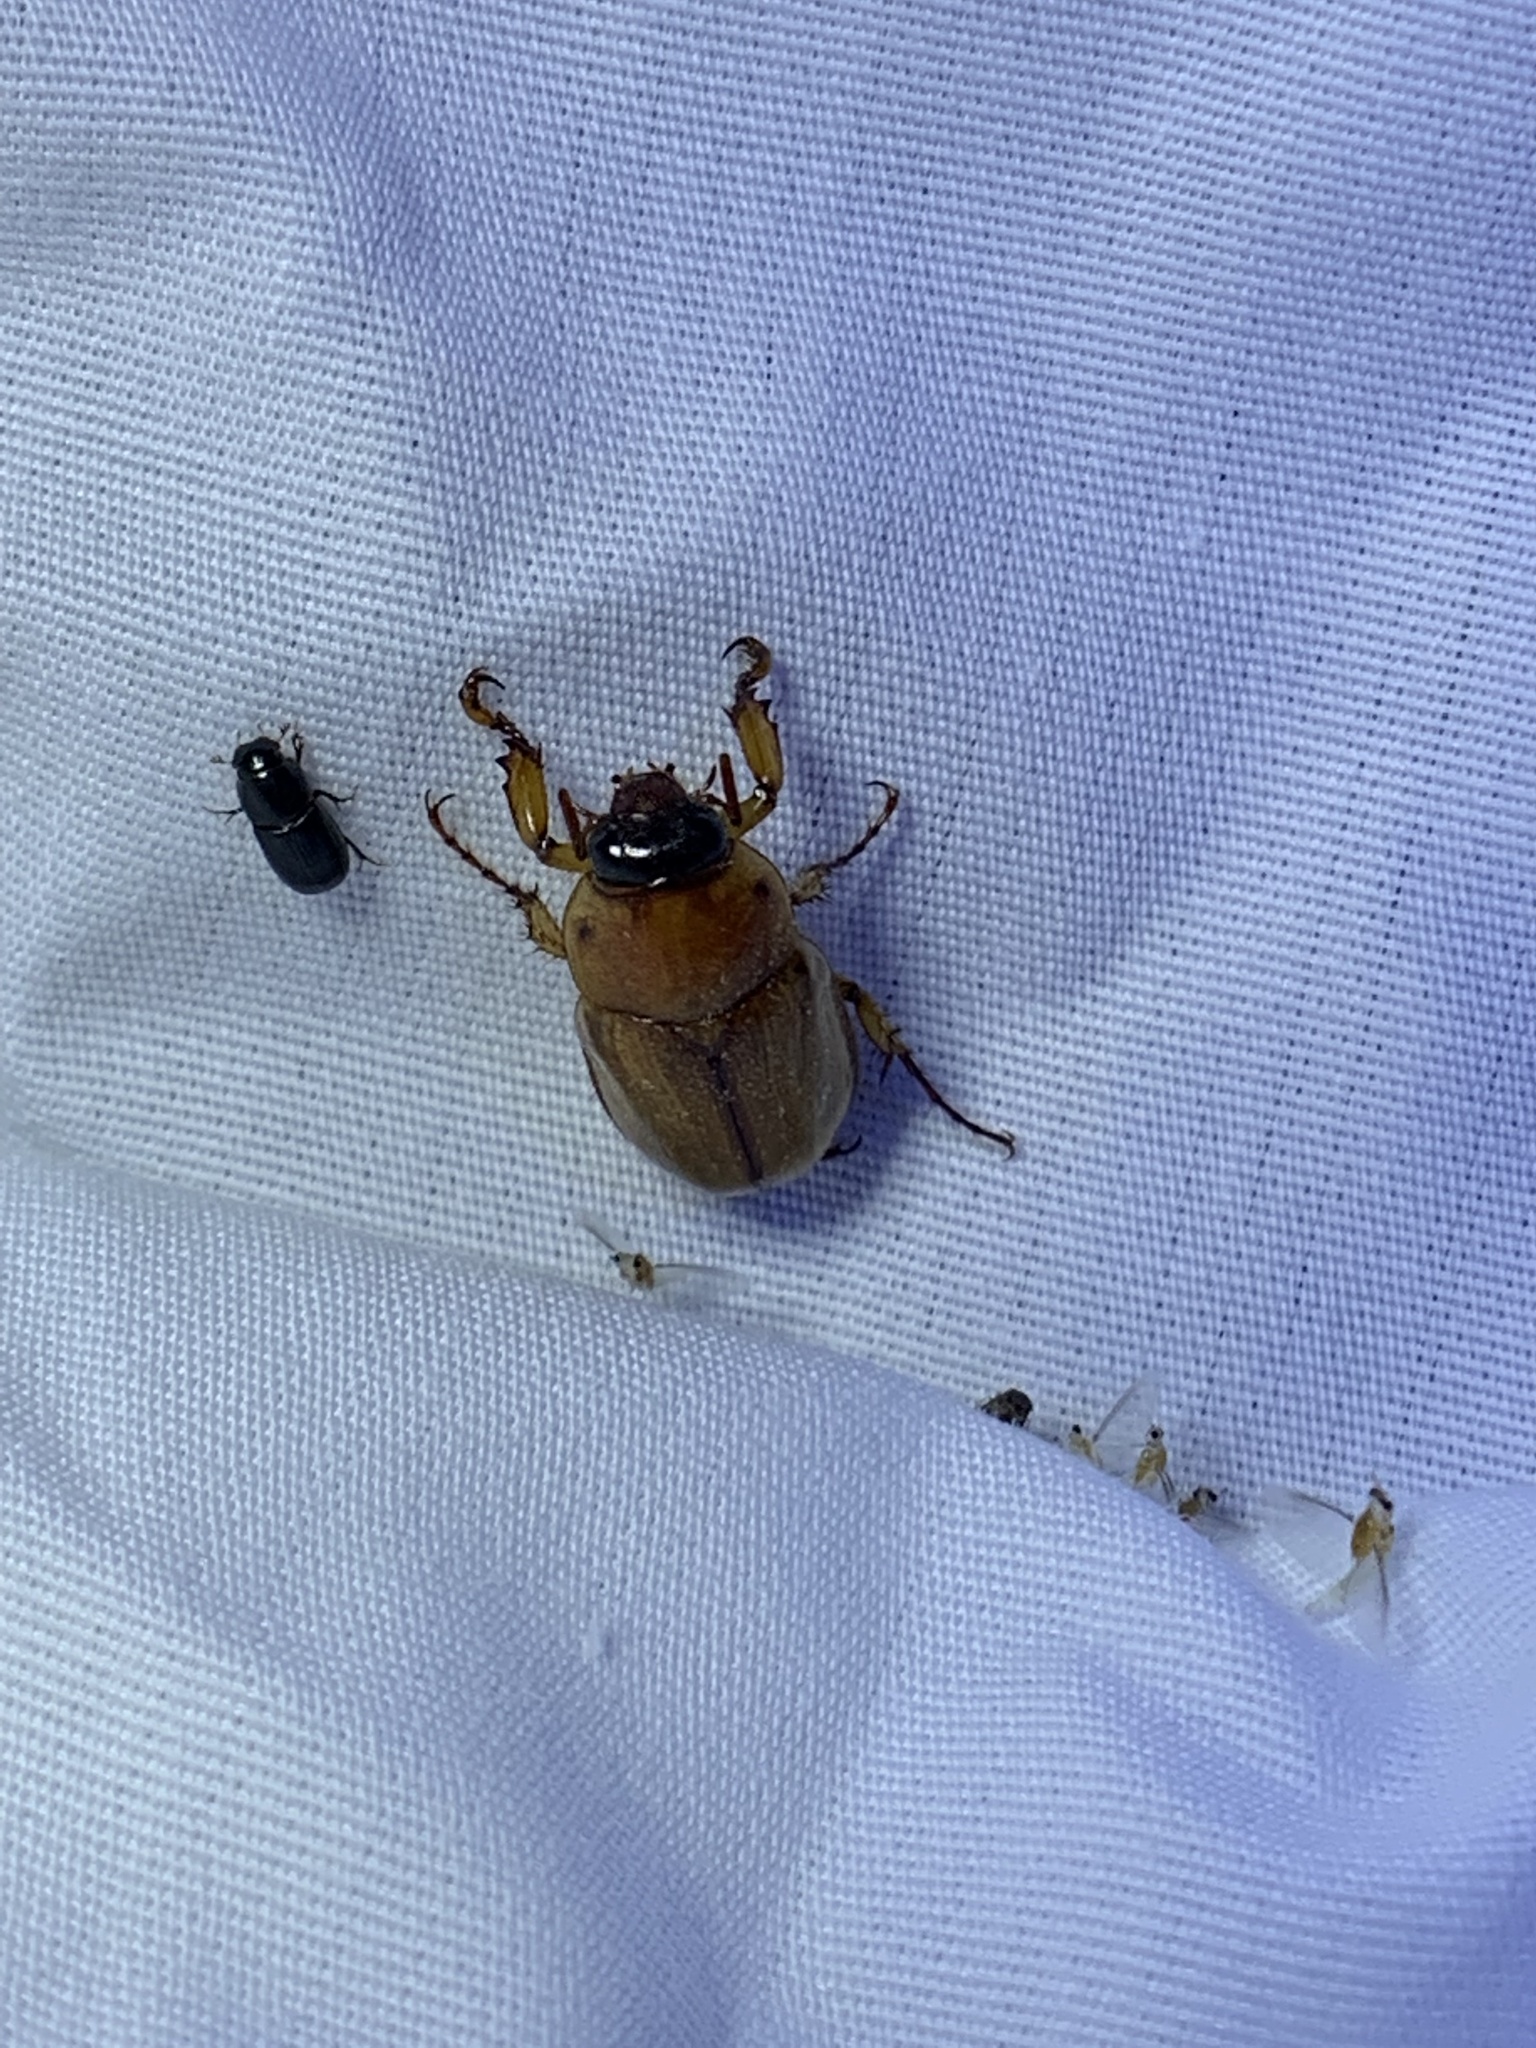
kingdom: Animalia
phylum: Arthropoda
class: Insecta
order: Coleoptera
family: Scarabaeidae
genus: Cyclocephala
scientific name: Cyclocephala lurida
